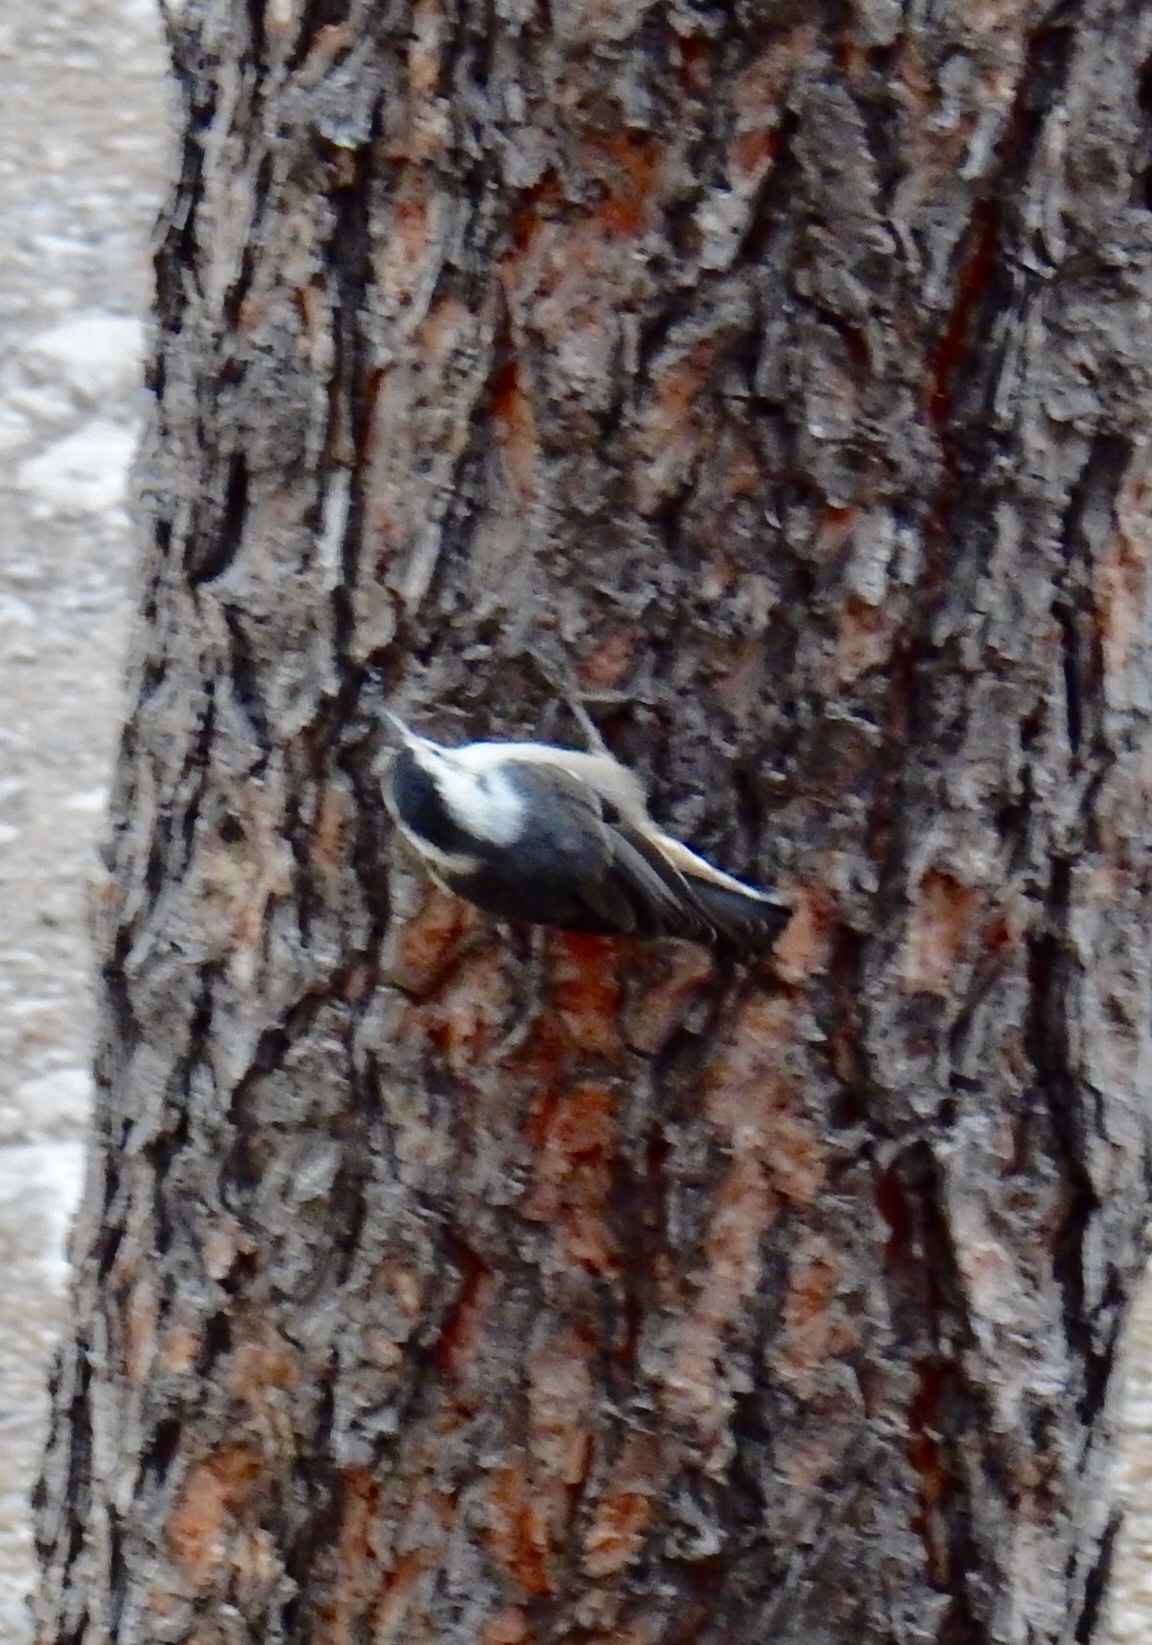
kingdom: Animalia
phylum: Chordata
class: Aves
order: Passeriformes
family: Sittidae
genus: Sitta
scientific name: Sitta carolinensis
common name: White-breasted nuthatch
